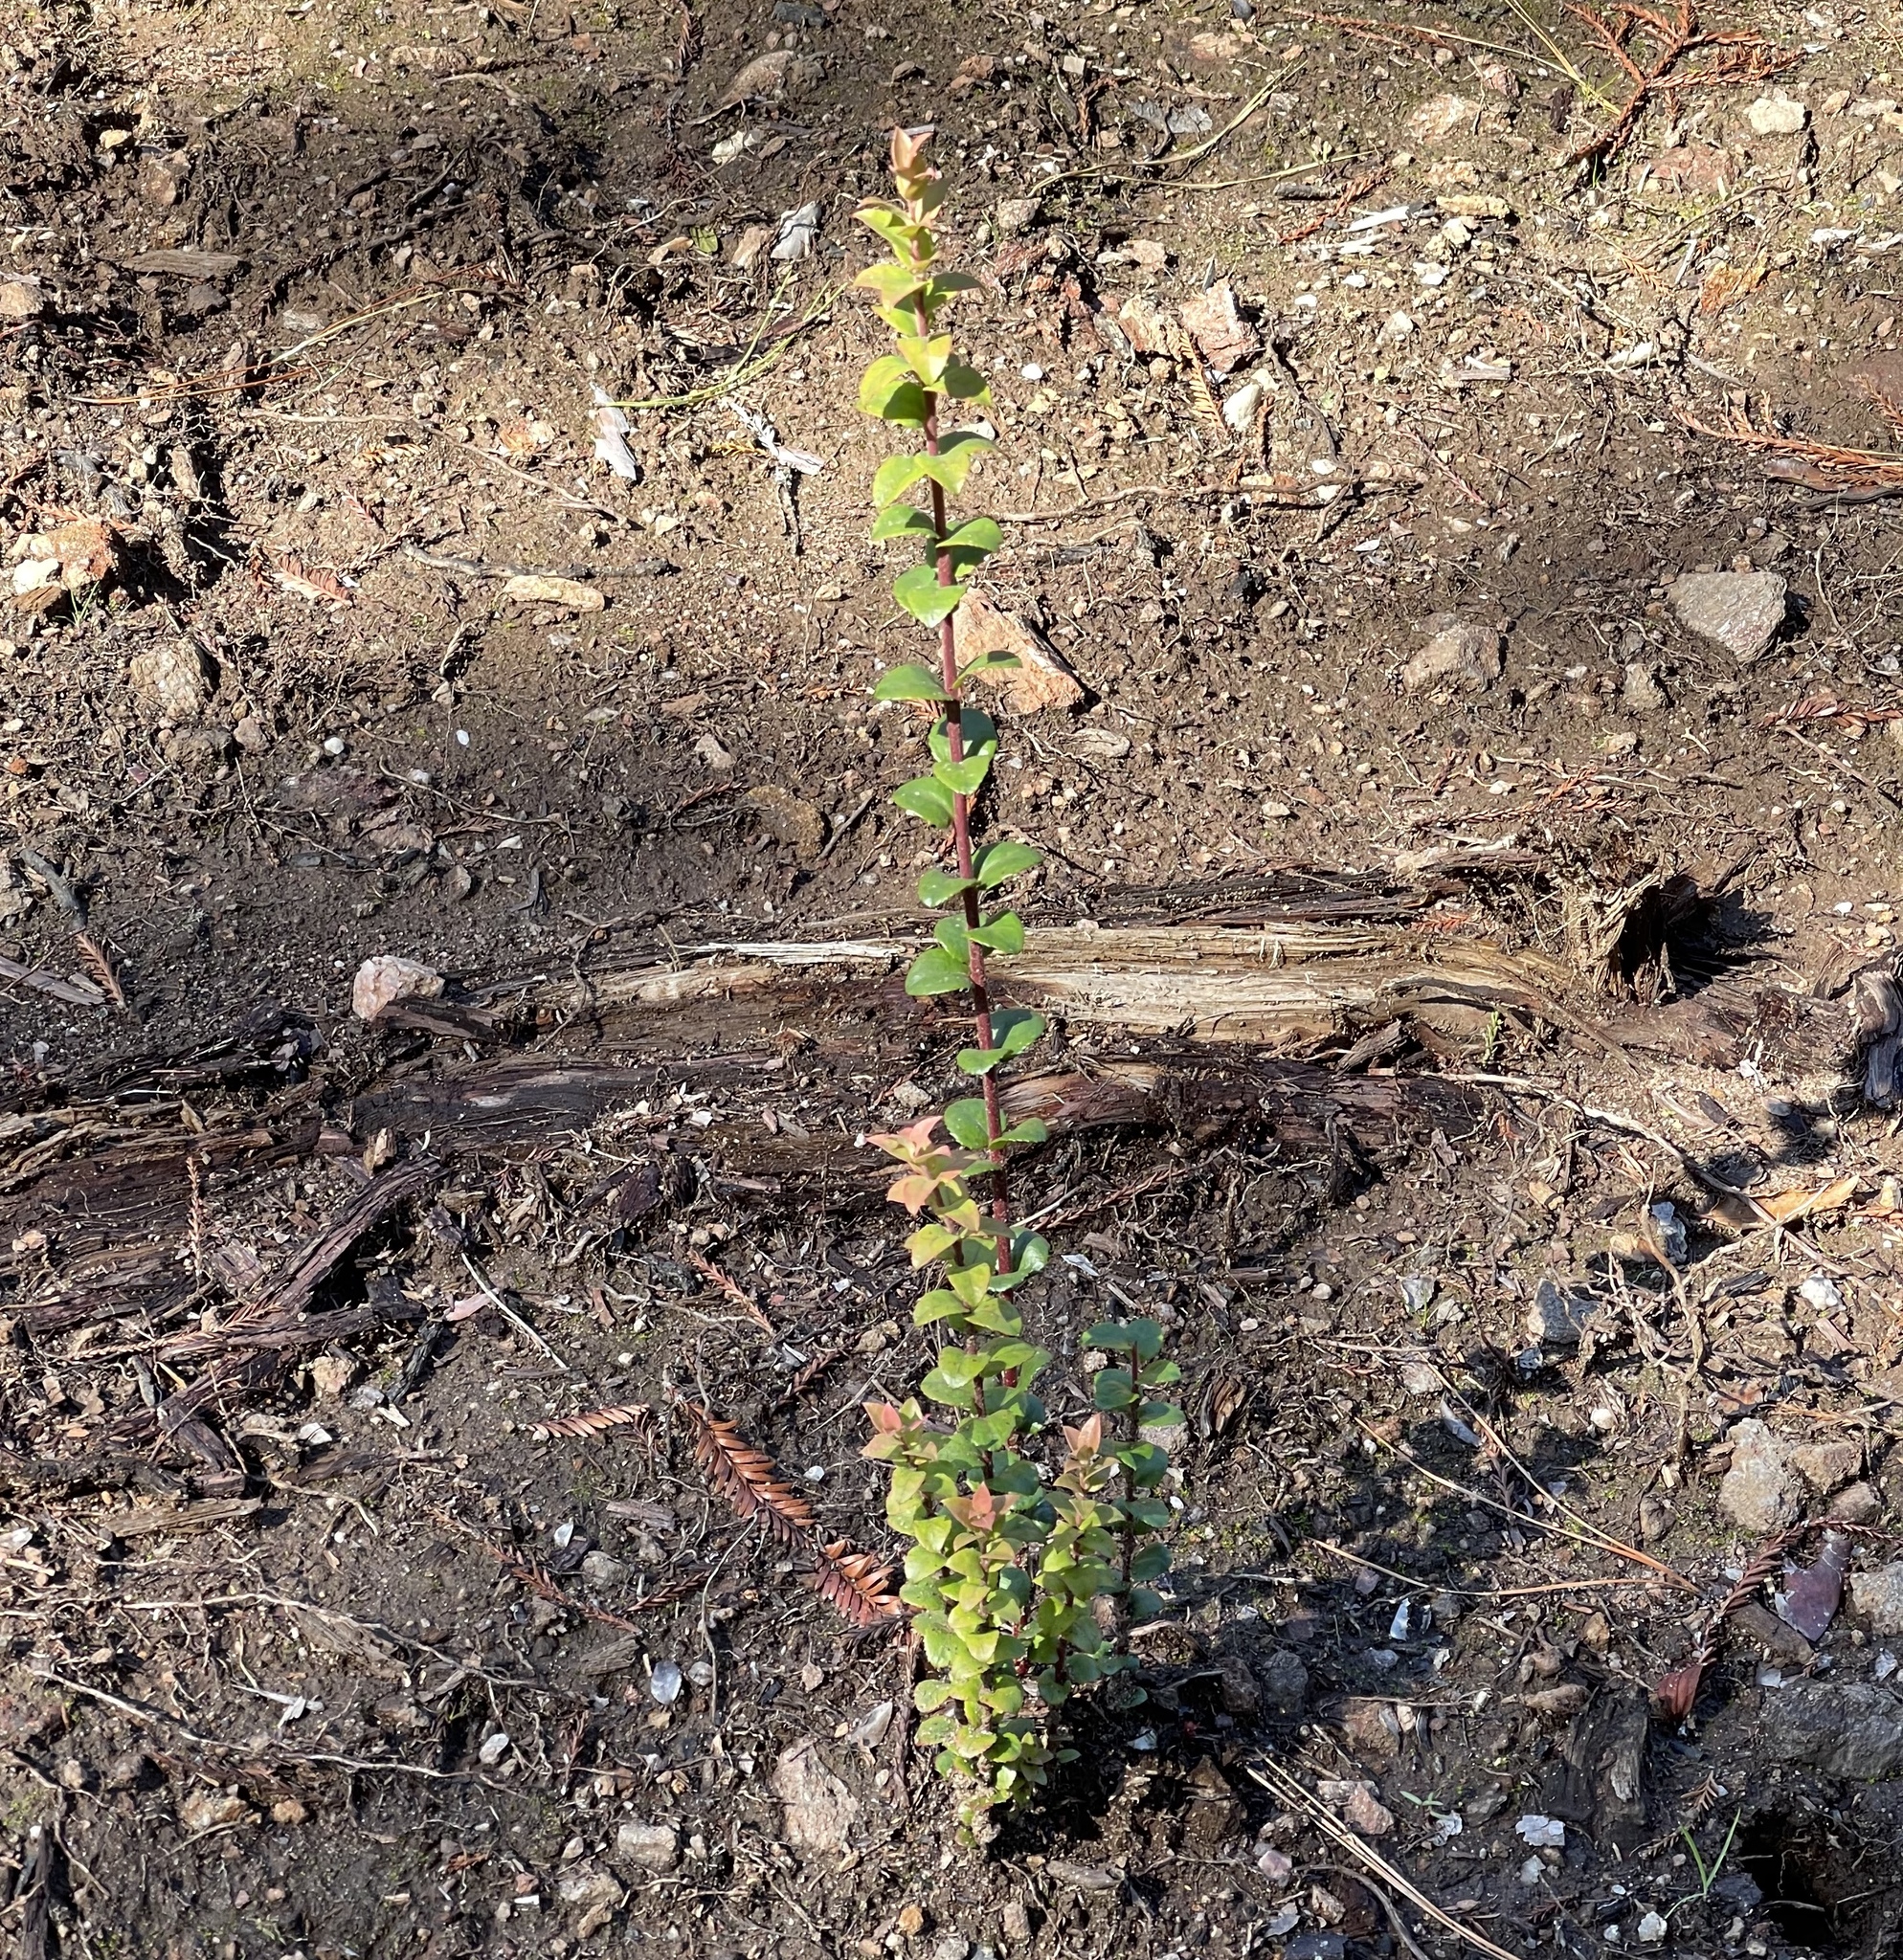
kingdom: Plantae
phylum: Tracheophyta
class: Magnoliopsida
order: Ericales
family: Ericaceae
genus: Vaccinium
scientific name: Vaccinium ovatum
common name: California-huckleberry
